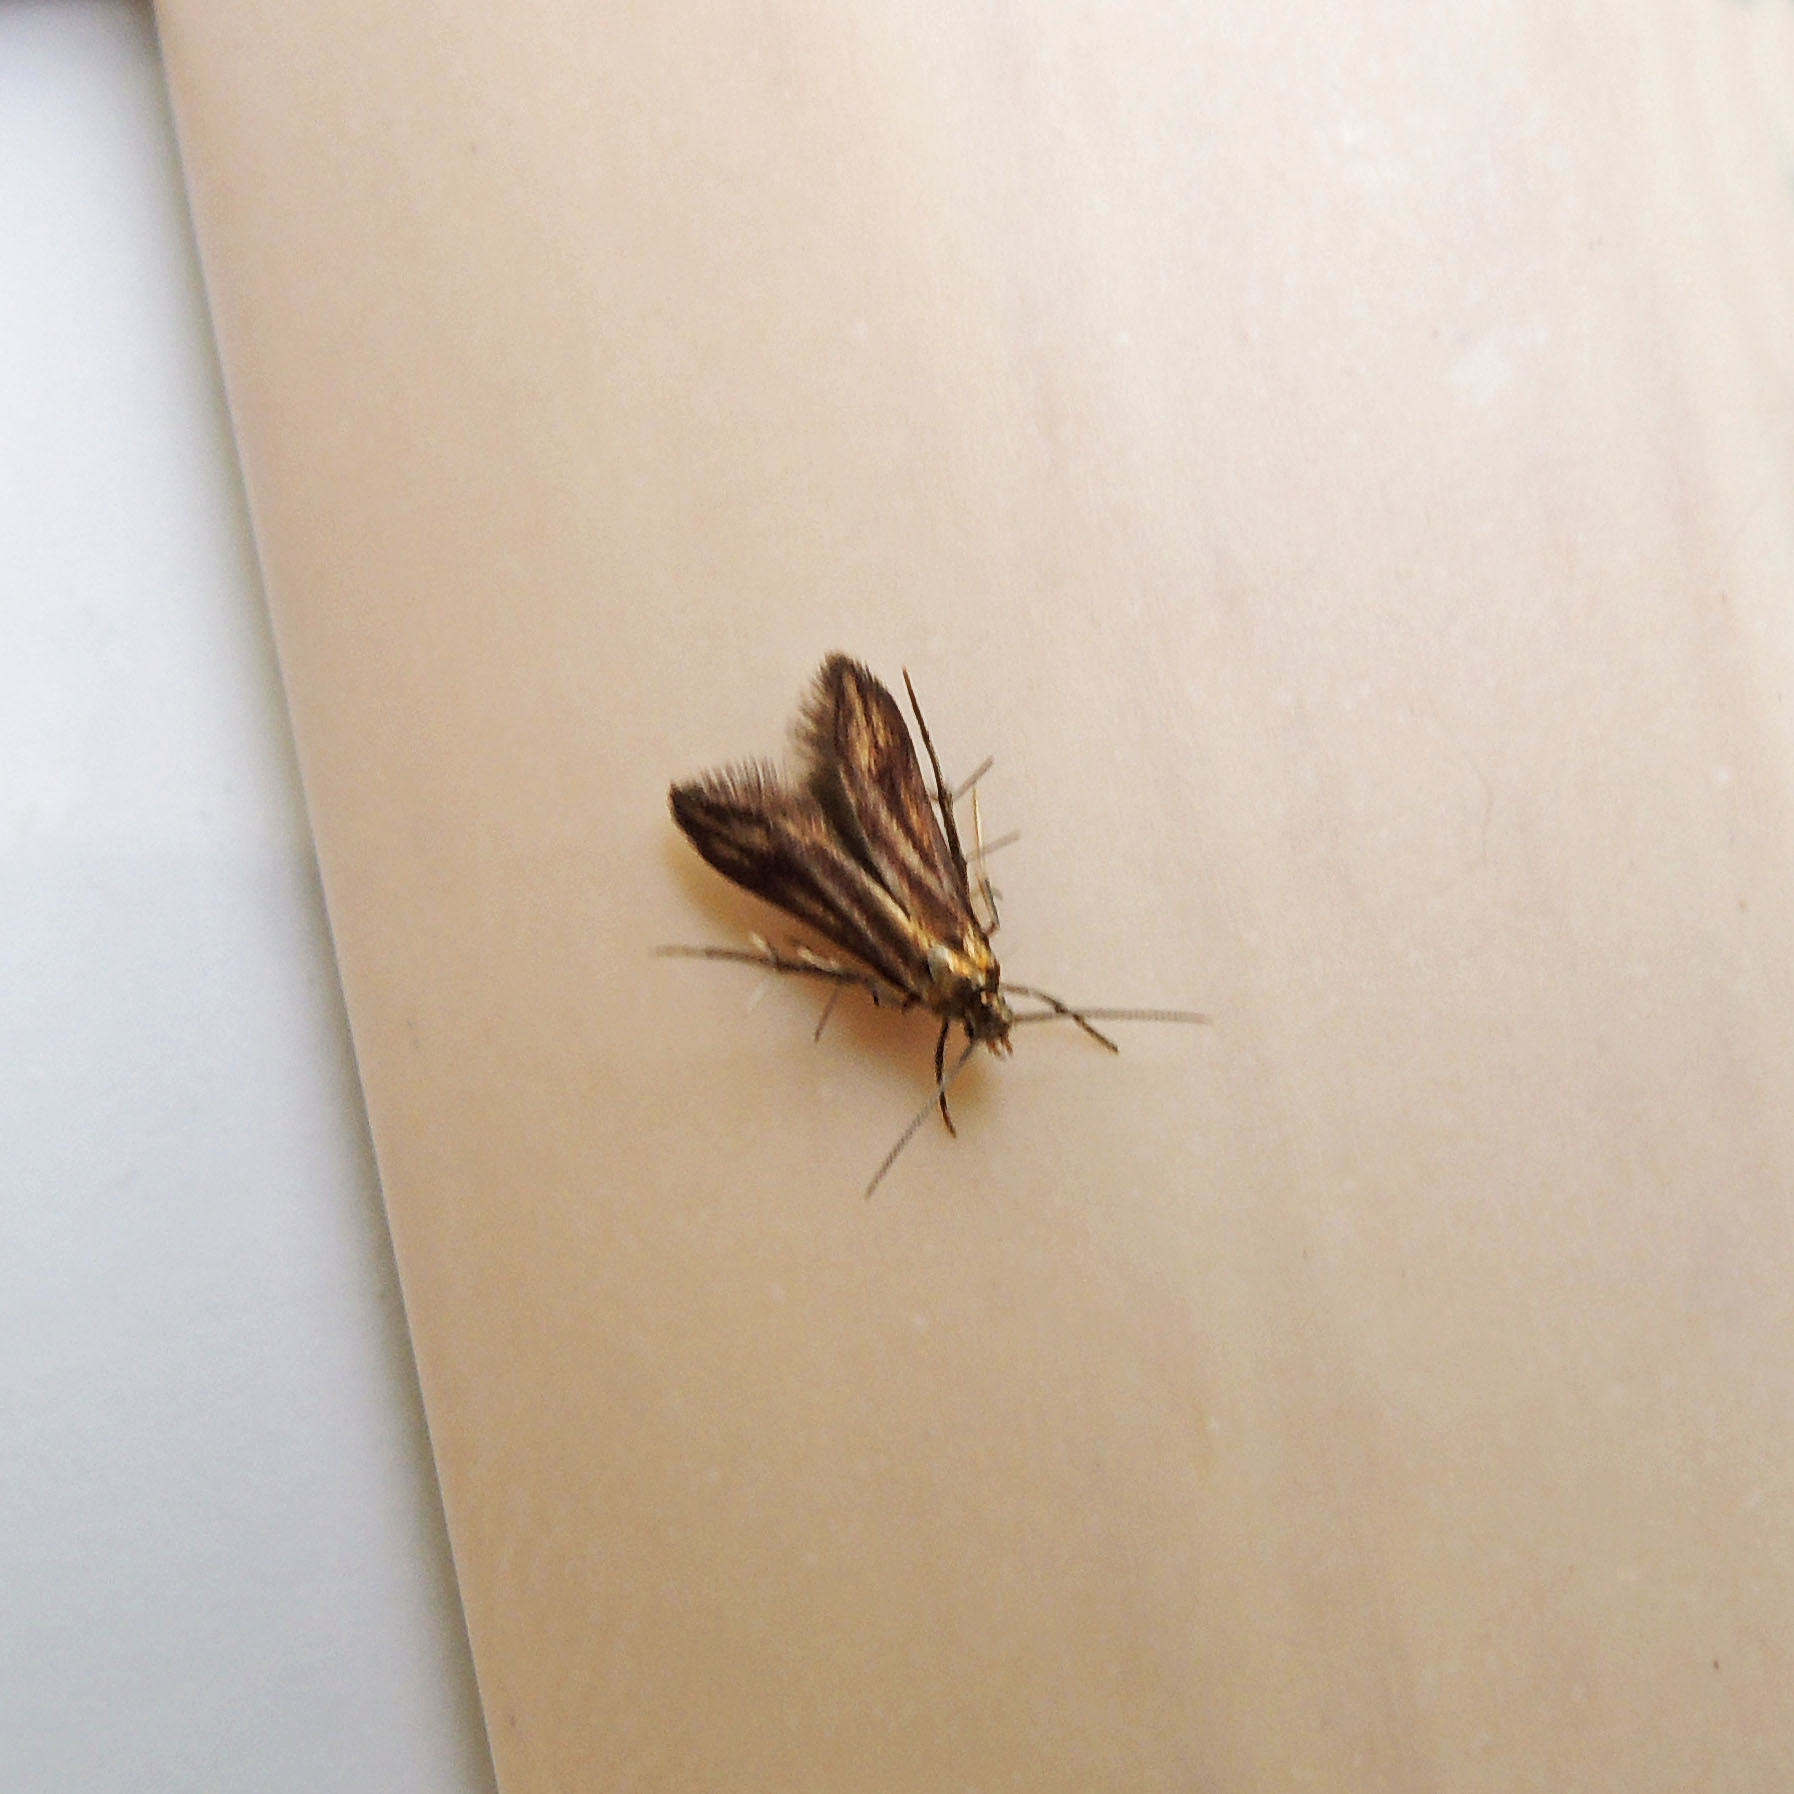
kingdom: Animalia
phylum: Arthropoda
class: Insecta
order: Lepidoptera
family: Schreckensteiniidae
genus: Schreckensteinia
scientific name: Schreckensteinia festaliella
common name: Blackberry skeletonizer
